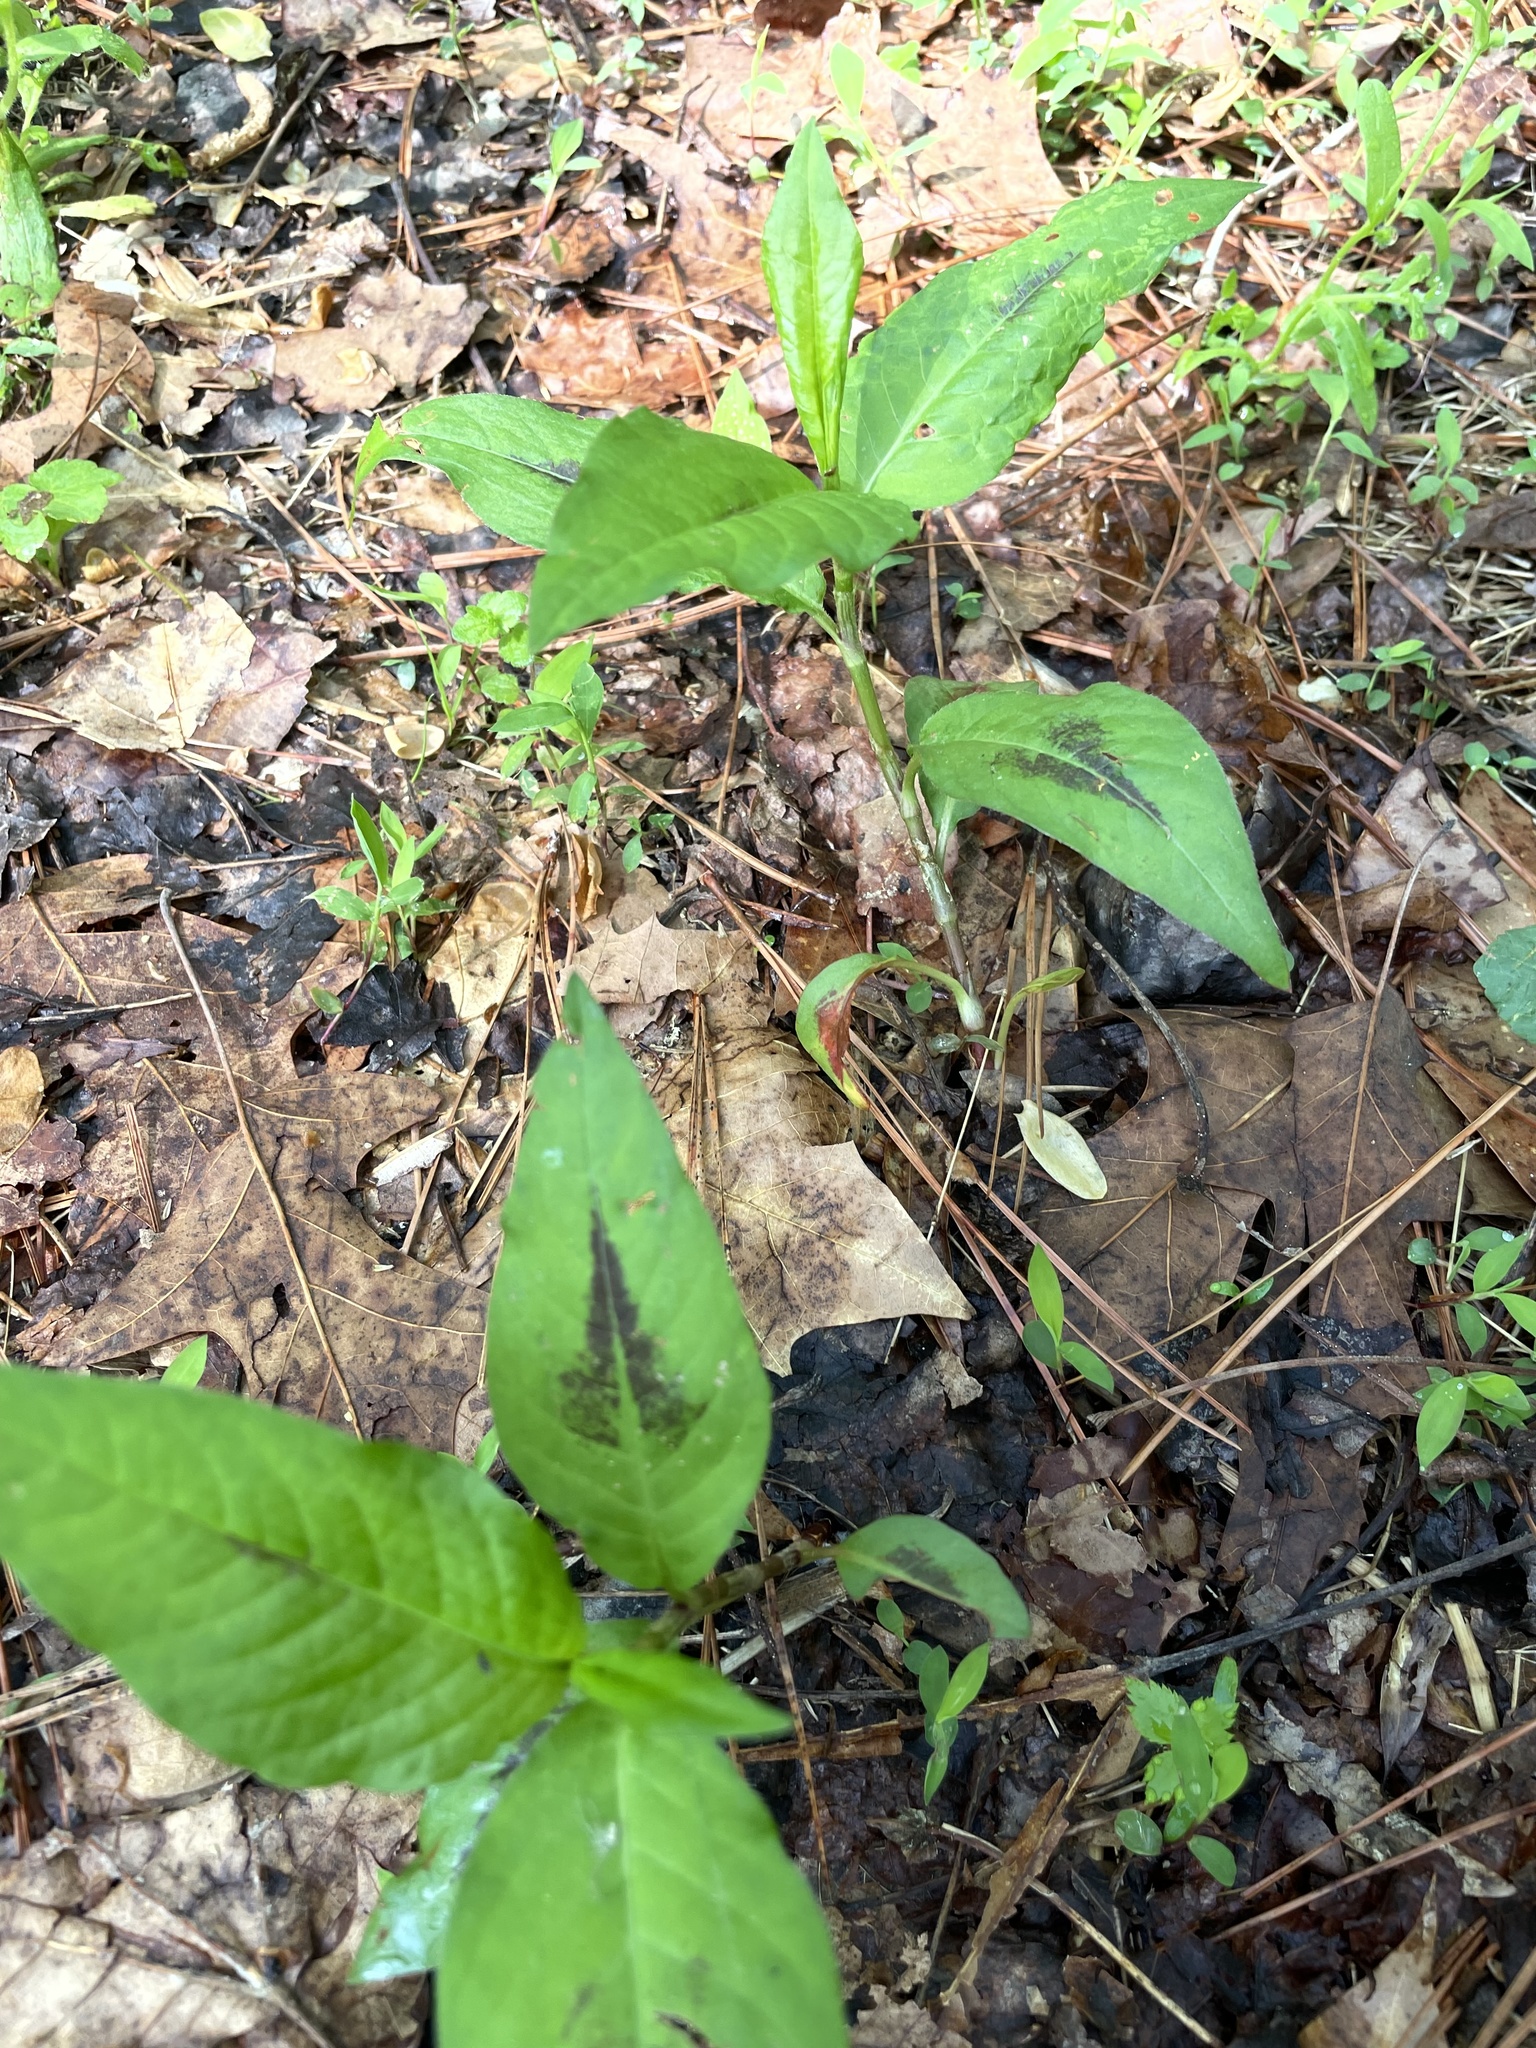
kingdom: Plantae
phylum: Tracheophyta
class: Magnoliopsida
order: Caryophyllales
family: Polygonaceae
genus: Persicaria
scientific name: Persicaria virginiana
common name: Jumpseed
